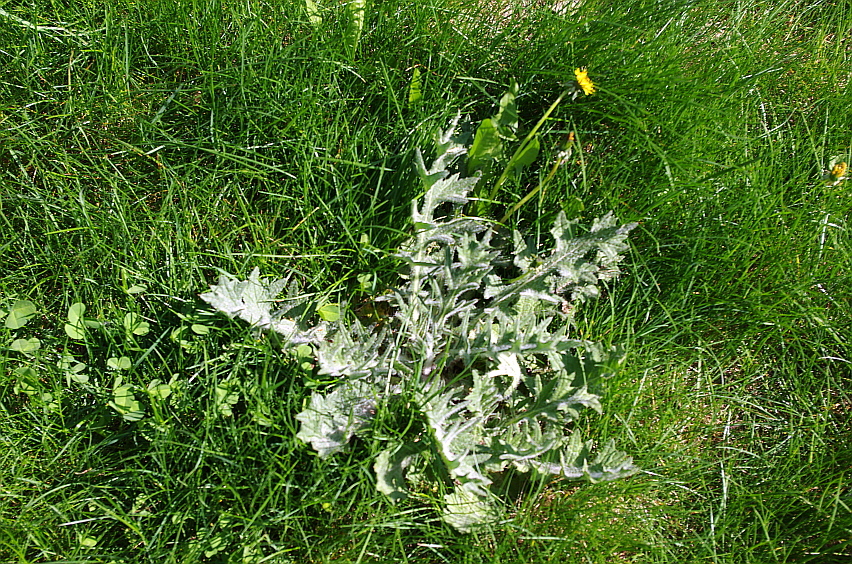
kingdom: Plantae
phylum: Tracheophyta
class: Magnoliopsida
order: Asterales
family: Asteraceae
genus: Cirsium
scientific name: Cirsium vulgare
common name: Bull thistle
